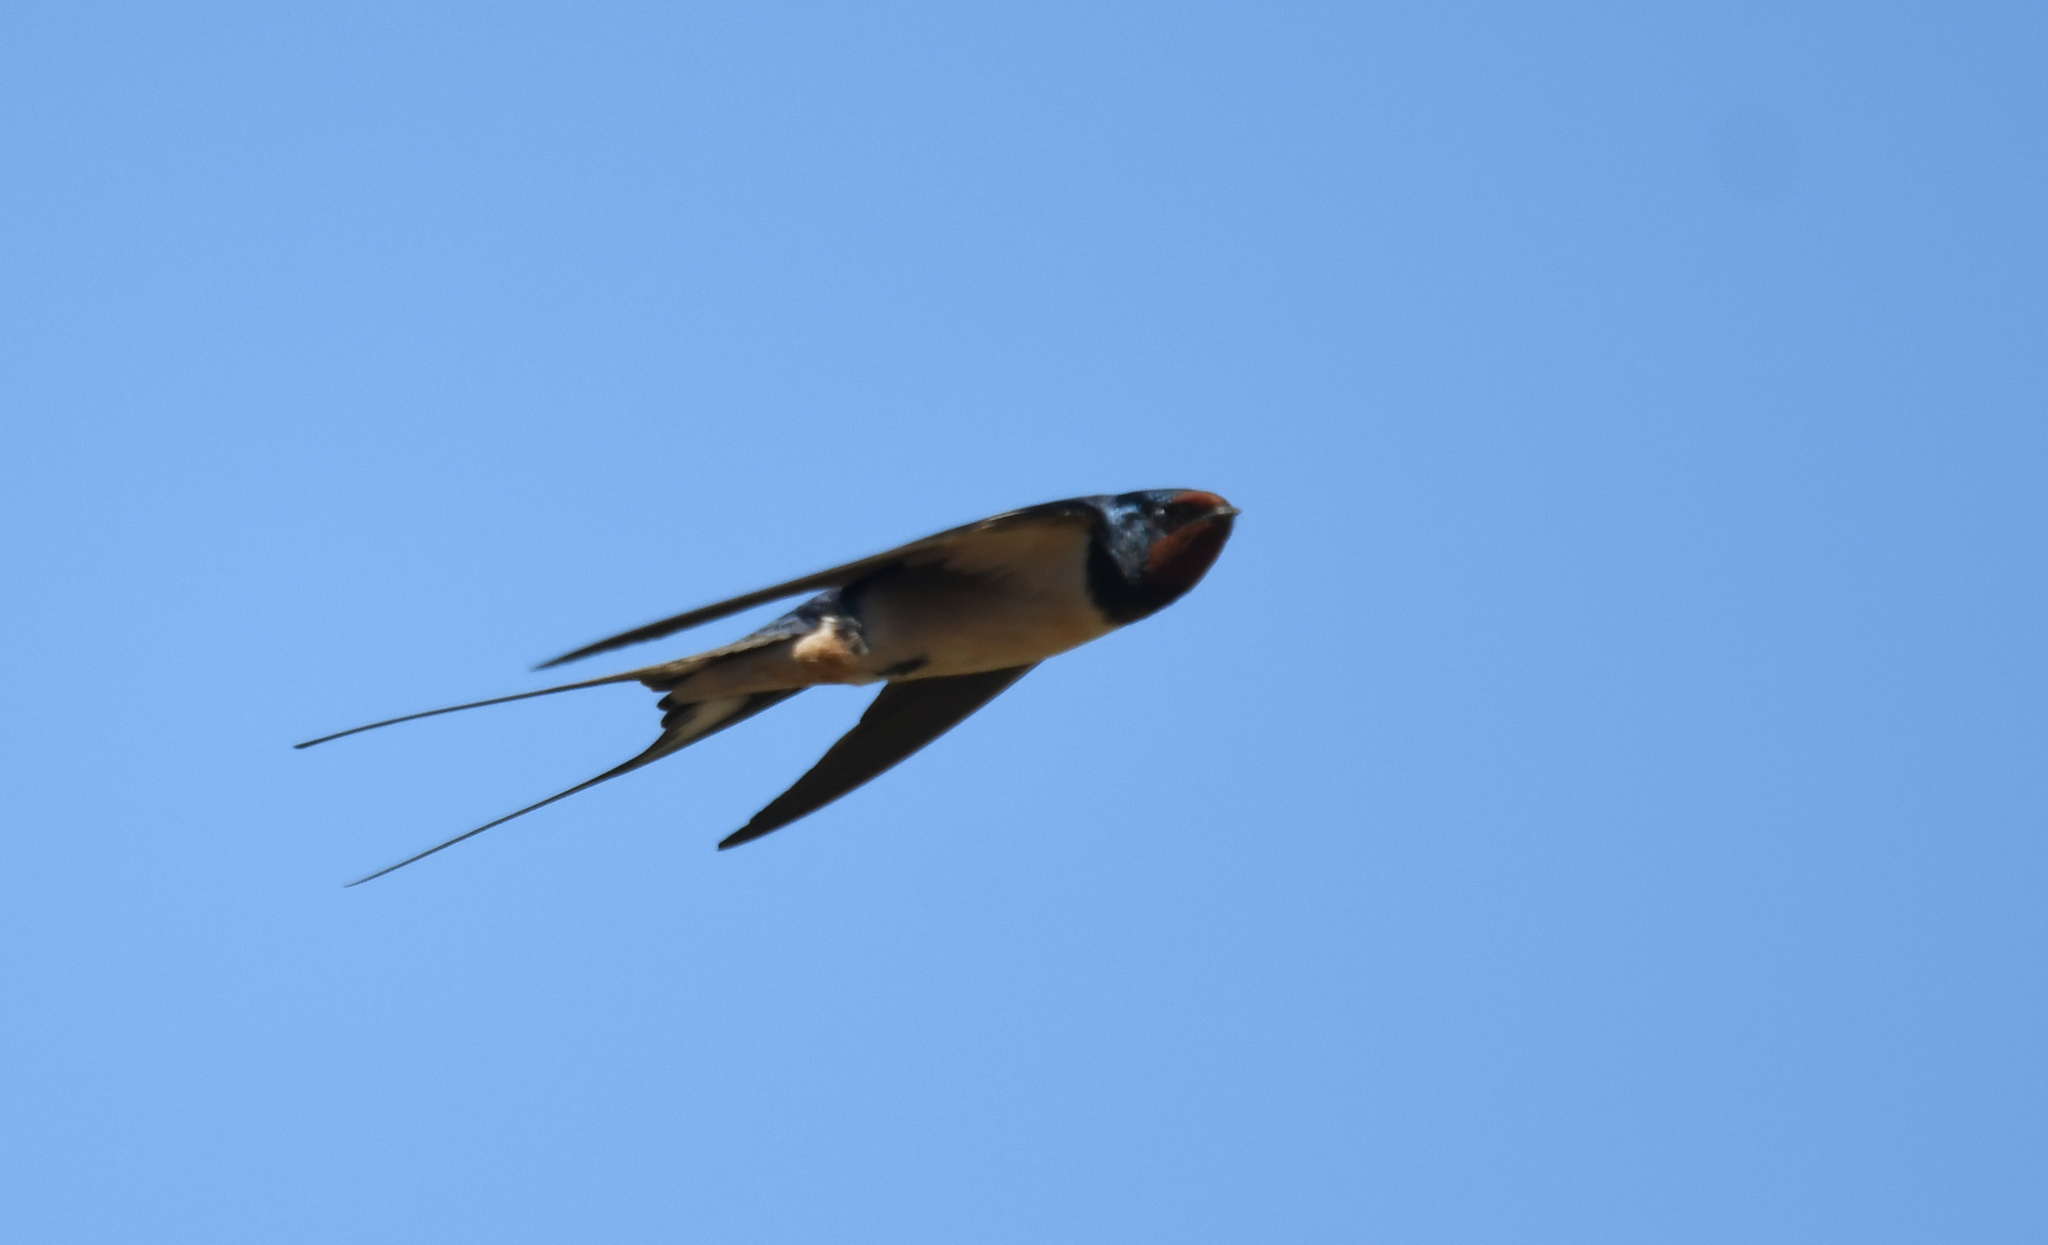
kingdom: Animalia
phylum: Chordata
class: Aves
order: Passeriformes
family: Hirundinidae
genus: Hirundo
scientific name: Hirundo rustica
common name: Barn swallow
